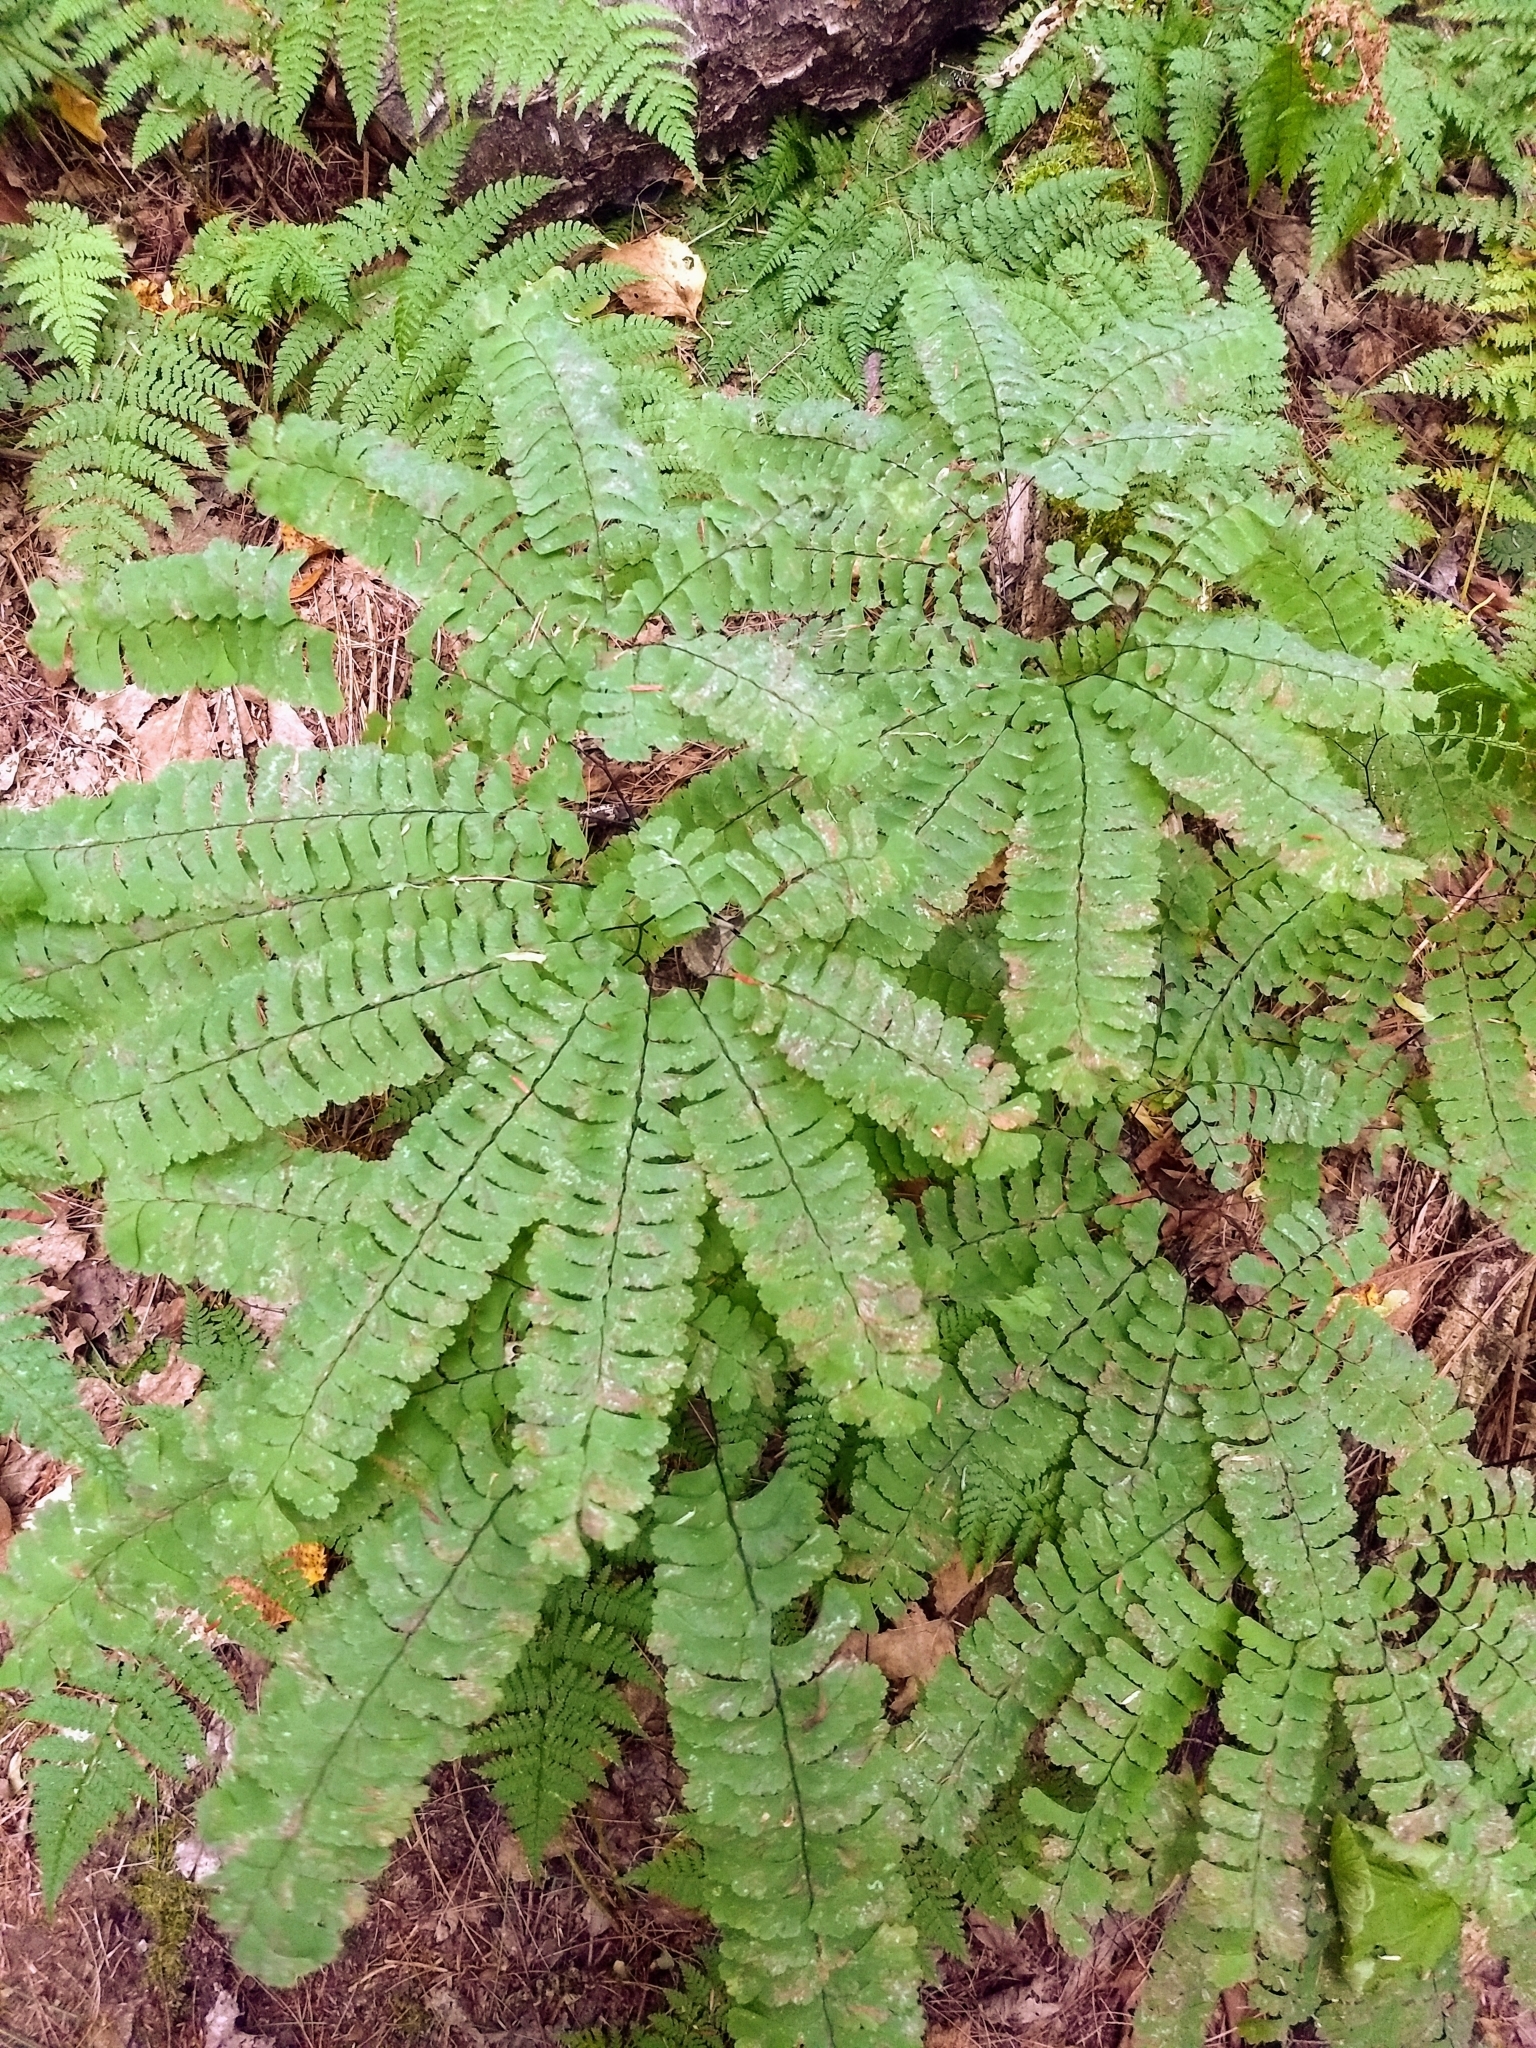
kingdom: Plantae
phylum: Tracheophyta
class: Polypodiopsida
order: Polypodiales
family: Pteridaceae
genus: Adiantum
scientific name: Adiantum pedatum
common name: Five-finger fern
